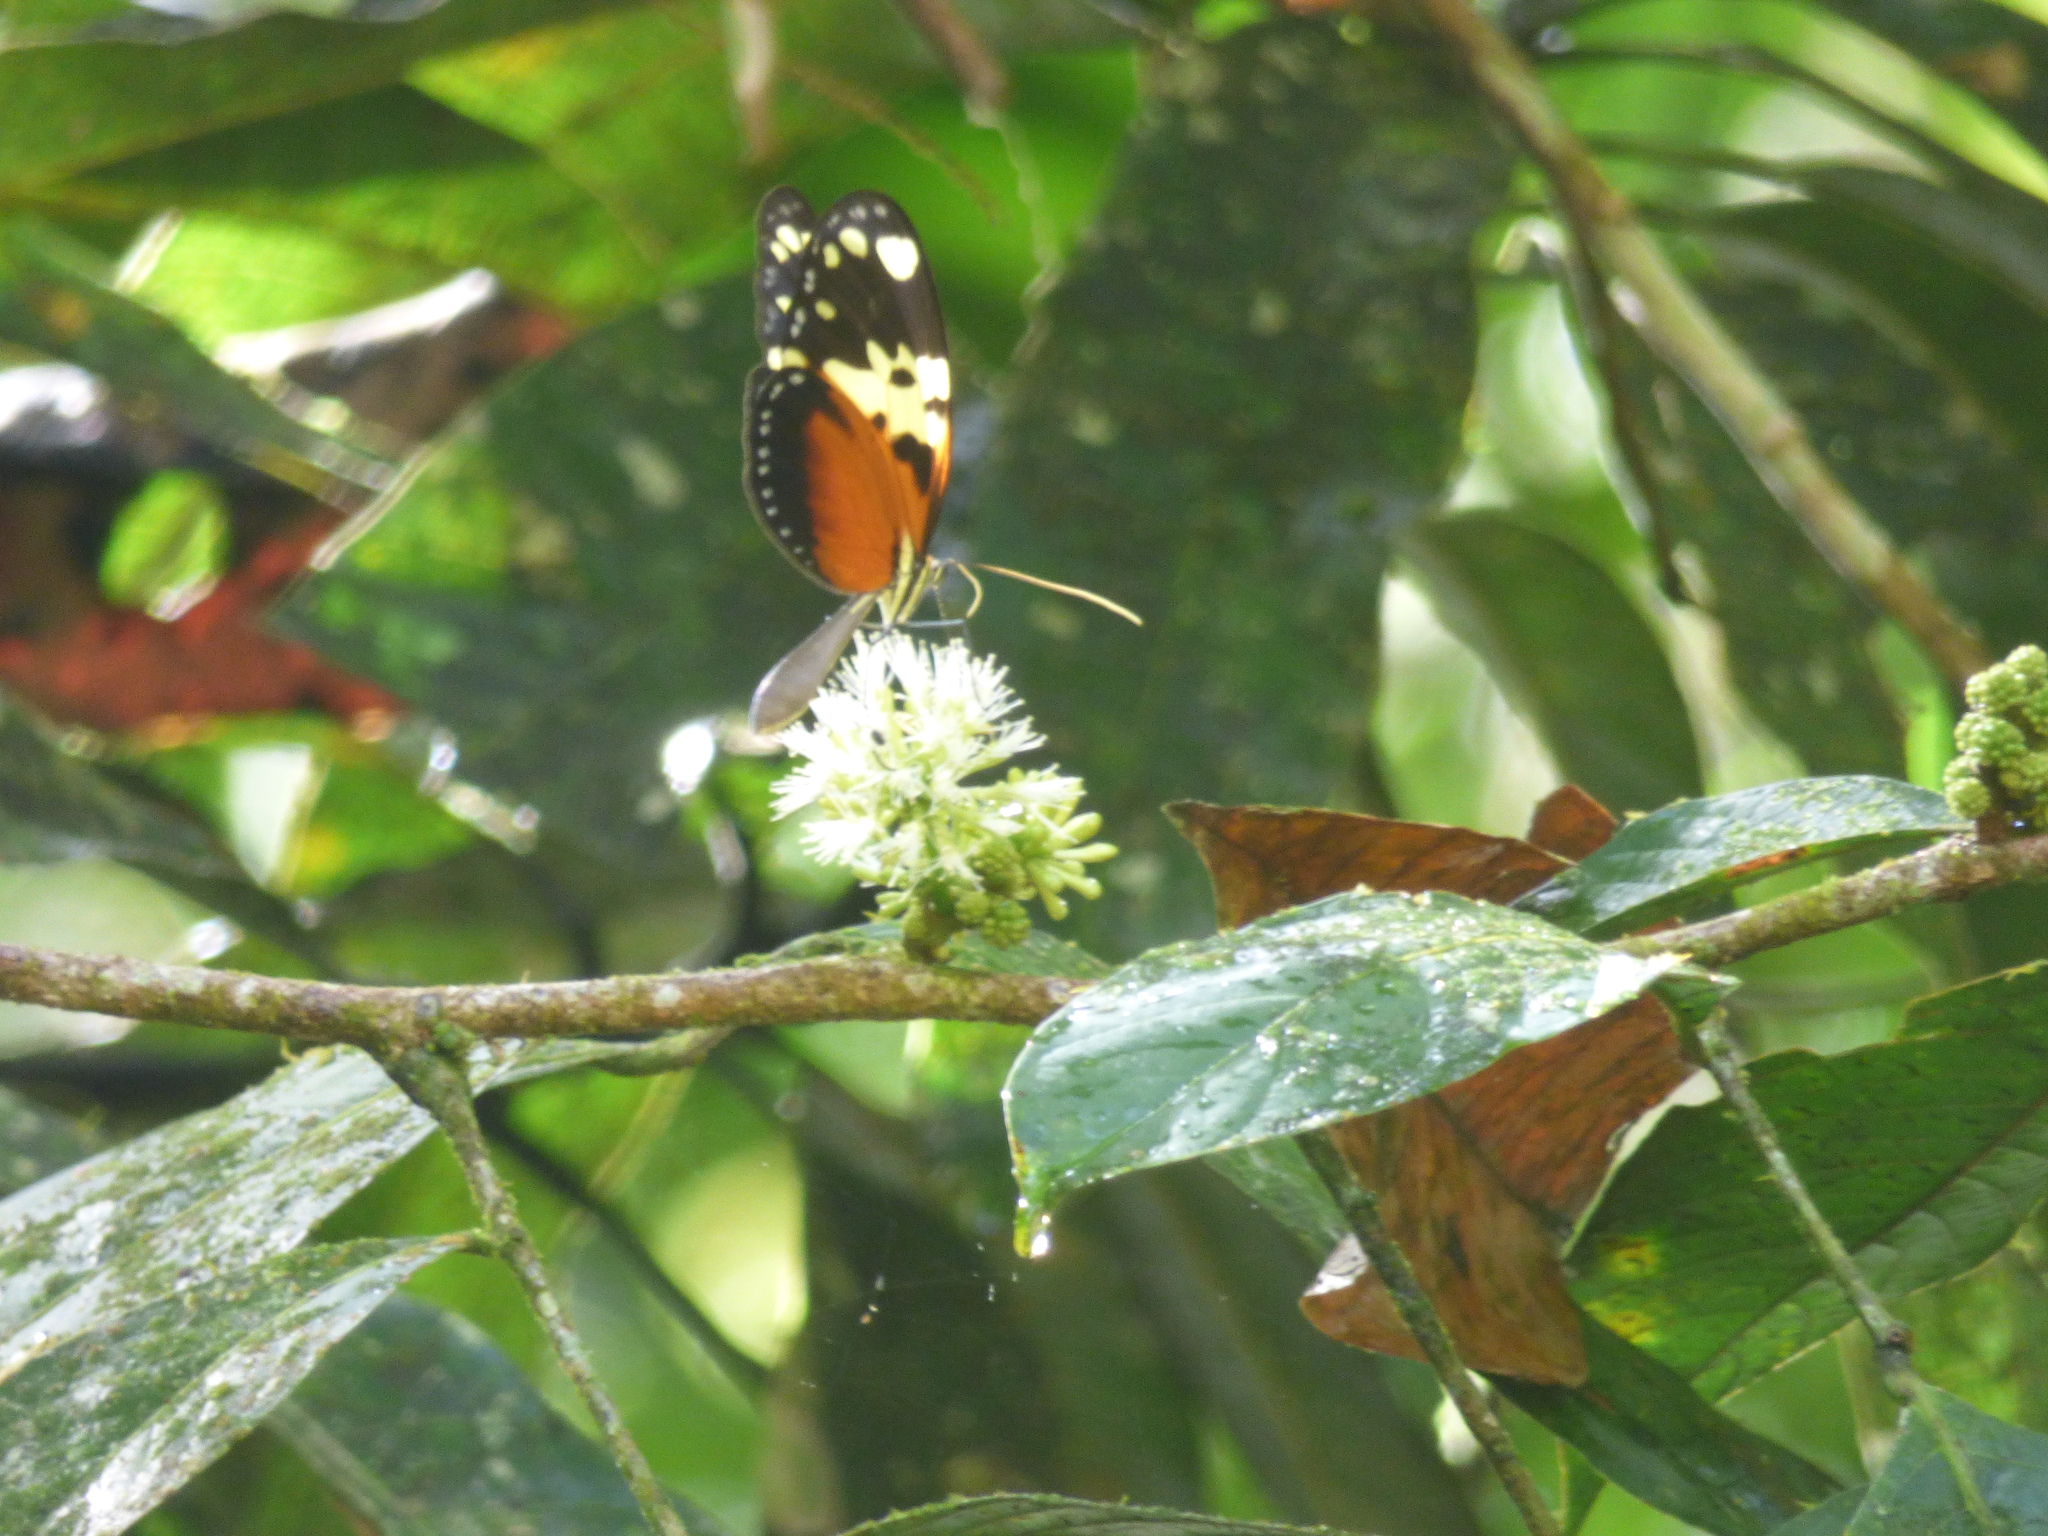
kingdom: Animalia
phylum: Arthropoda
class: Insecta
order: Lepidoptera
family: Nymphalidae
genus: Melinaea
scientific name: Melinaea idae
